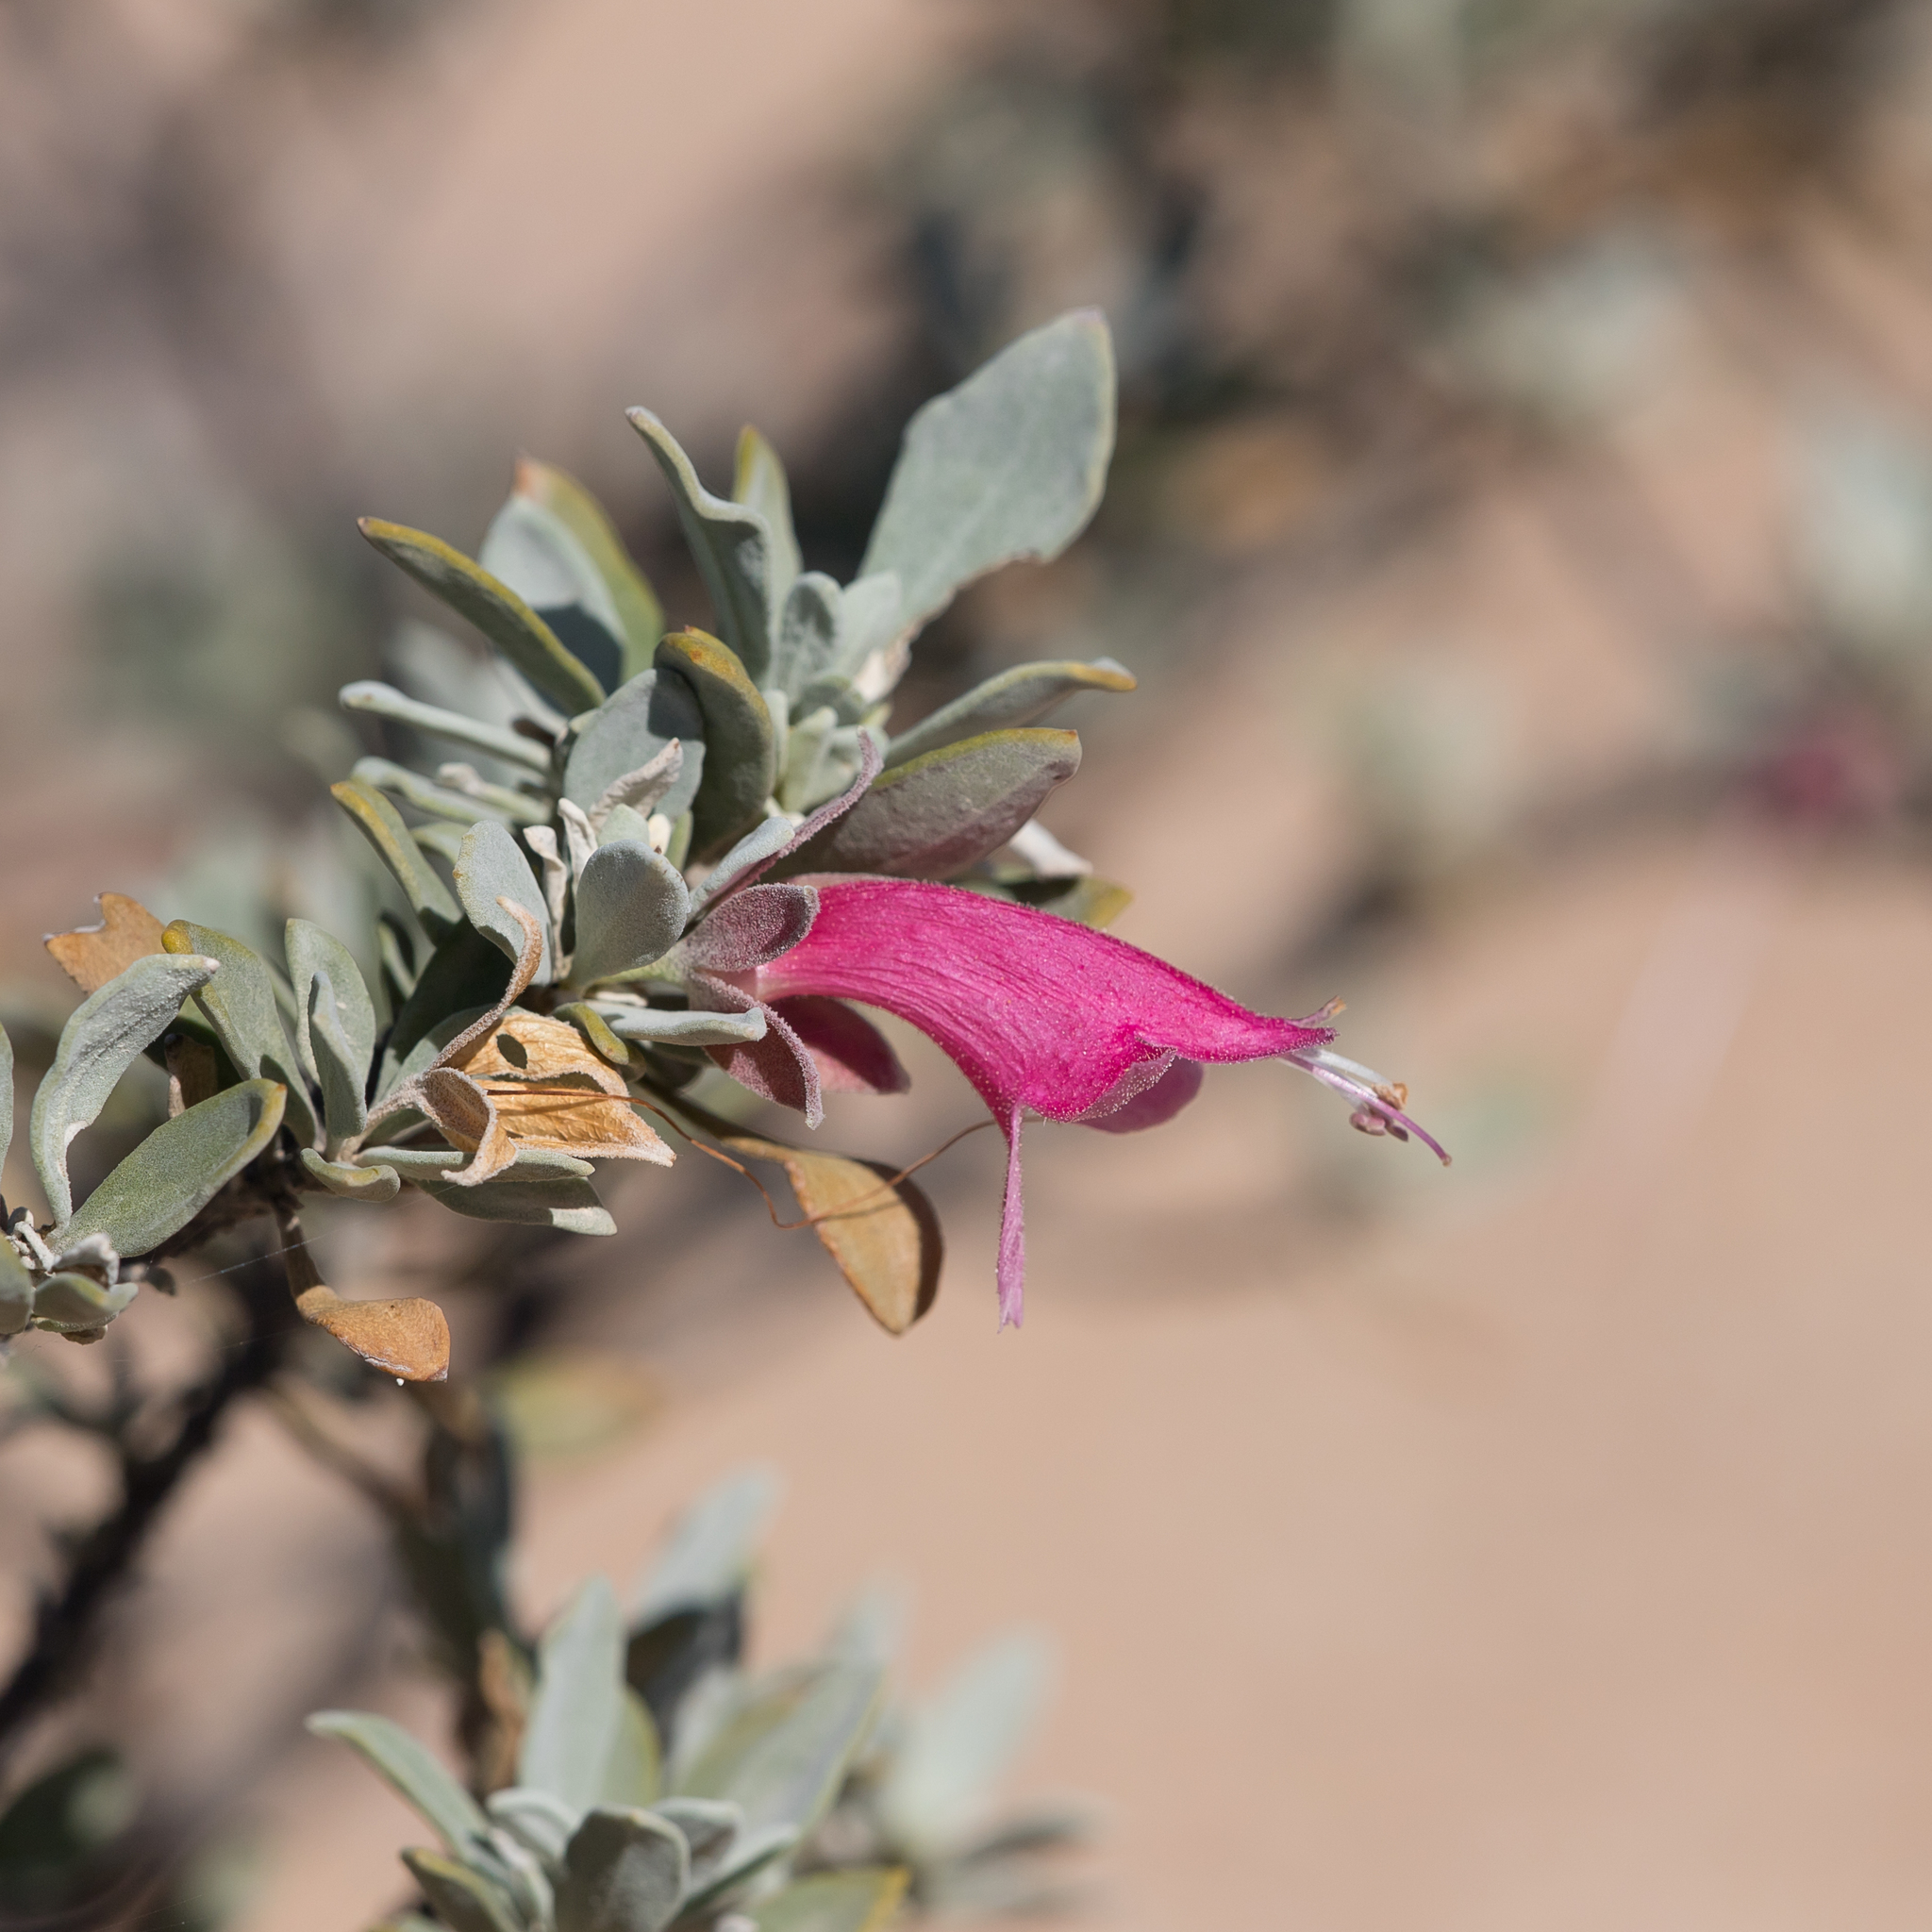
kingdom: Plantae
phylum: Tracheophyta
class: Magnoliopsida
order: Lamiales
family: Scrophulariaceae
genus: Eremophila
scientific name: Eremophila latrobei
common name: Crimson turkeybush
